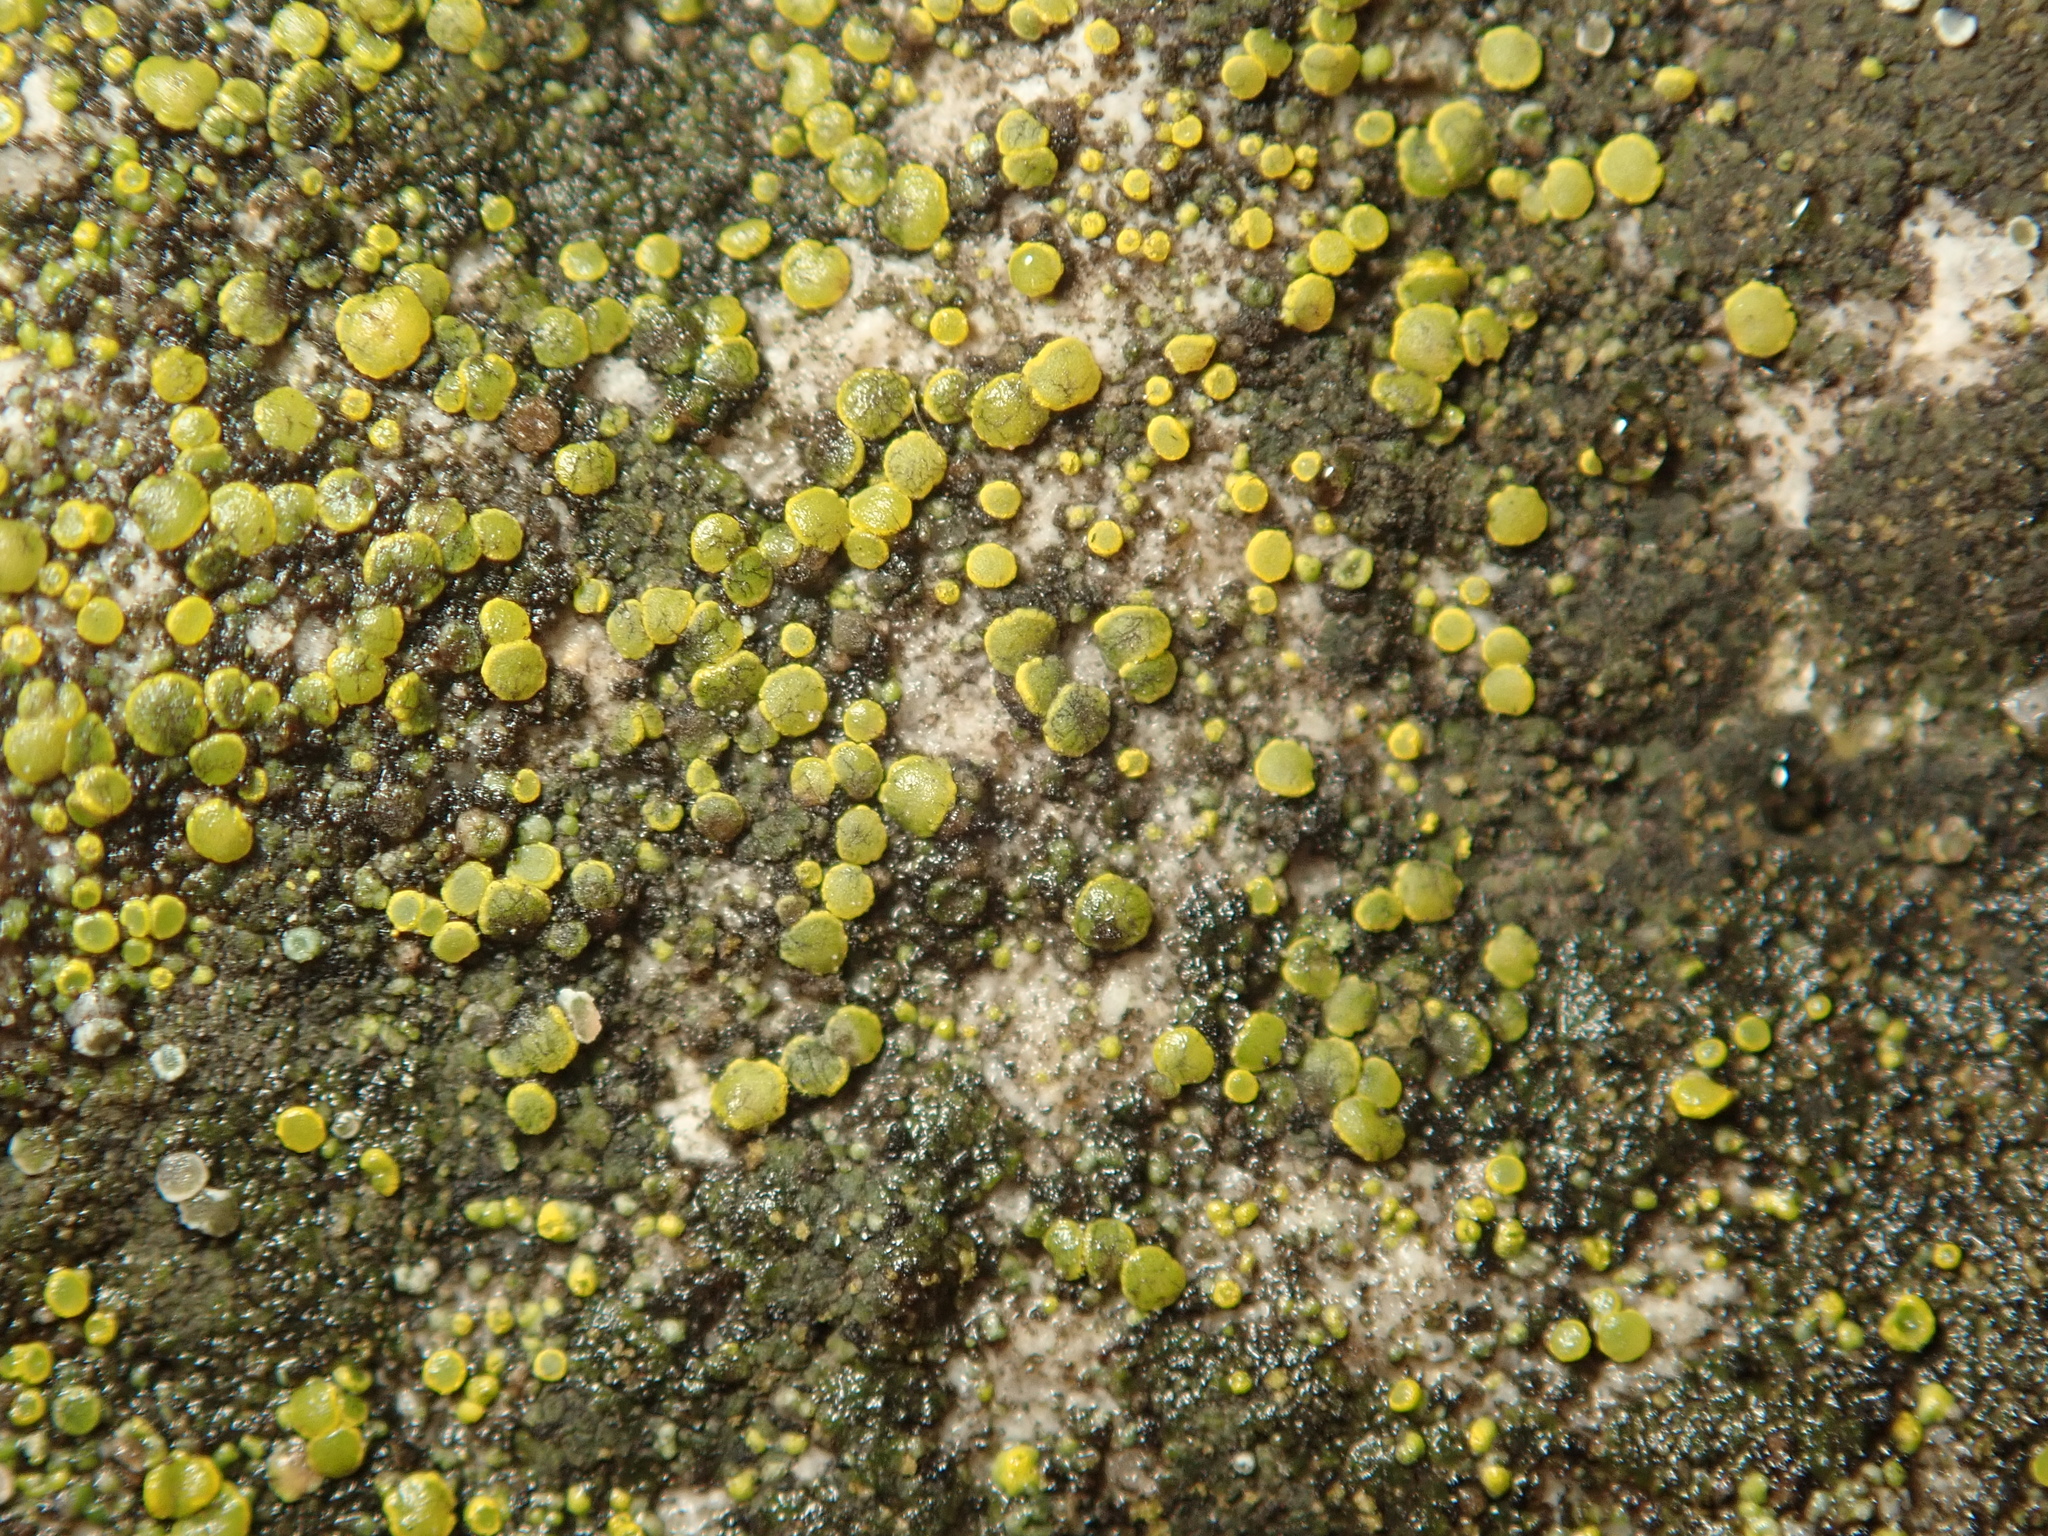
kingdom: Fungi
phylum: Ascomycota
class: Candelariomycetes
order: Candelariales
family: Candelariaceae
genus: Candelariella
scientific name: Candelariella aurella
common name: Hidden goldspeck lichen
